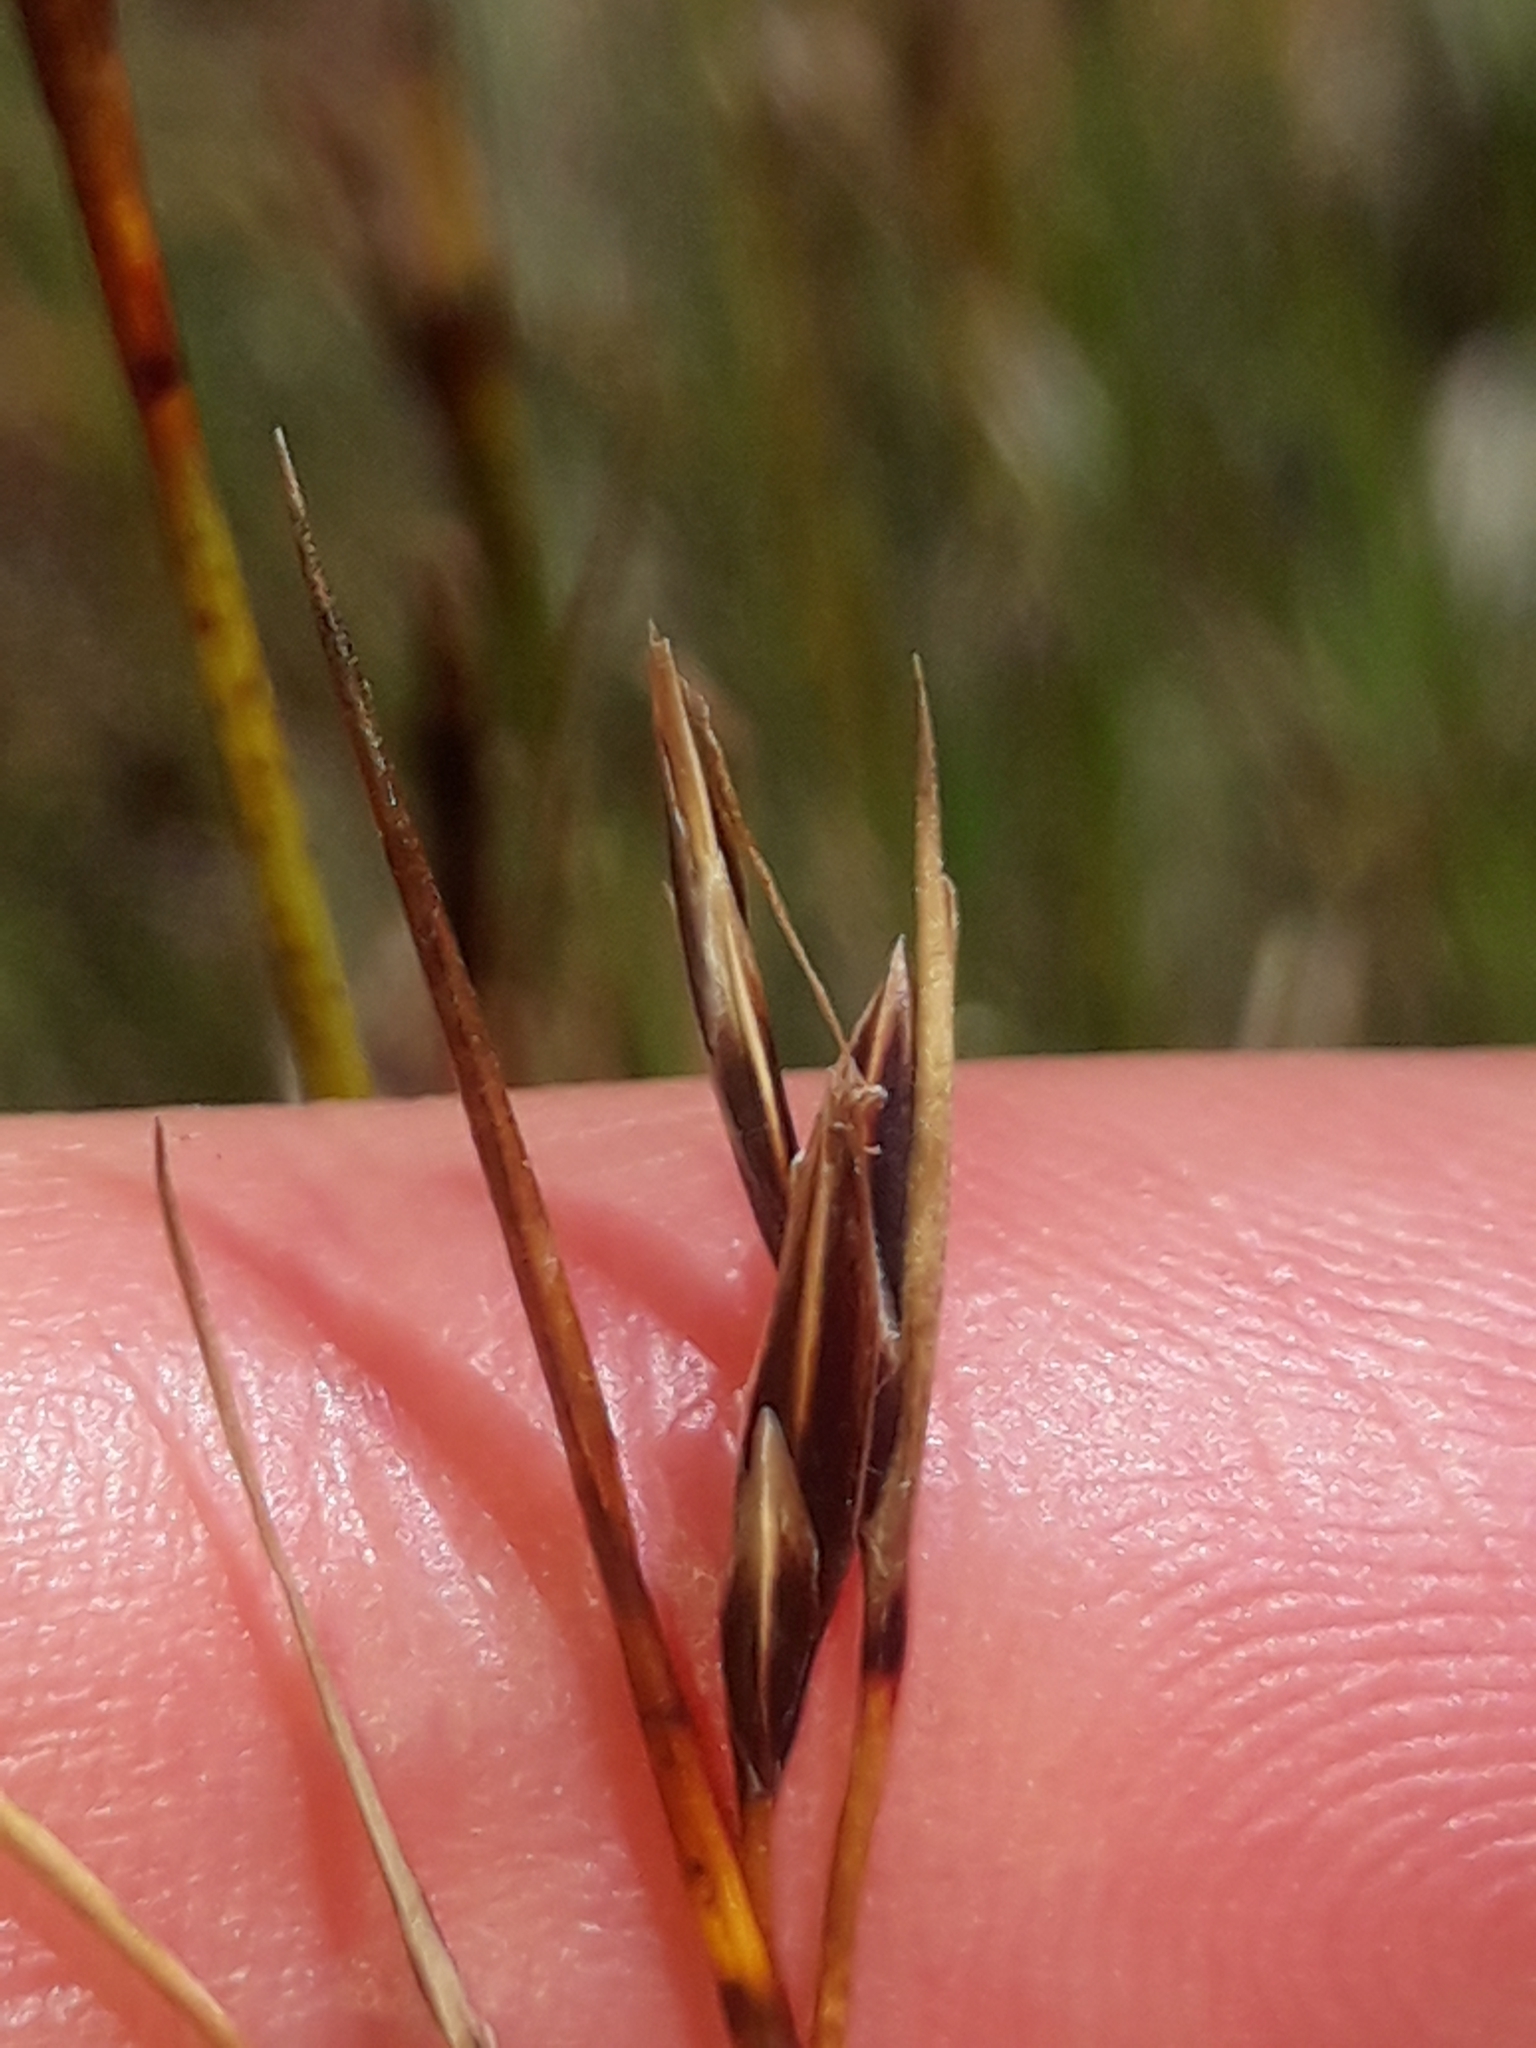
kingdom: Plantae
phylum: Tracheophyta
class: Liliopsida
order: Poales
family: Cyperaceae
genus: Schoenus
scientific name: Schoenus pauciflorus
